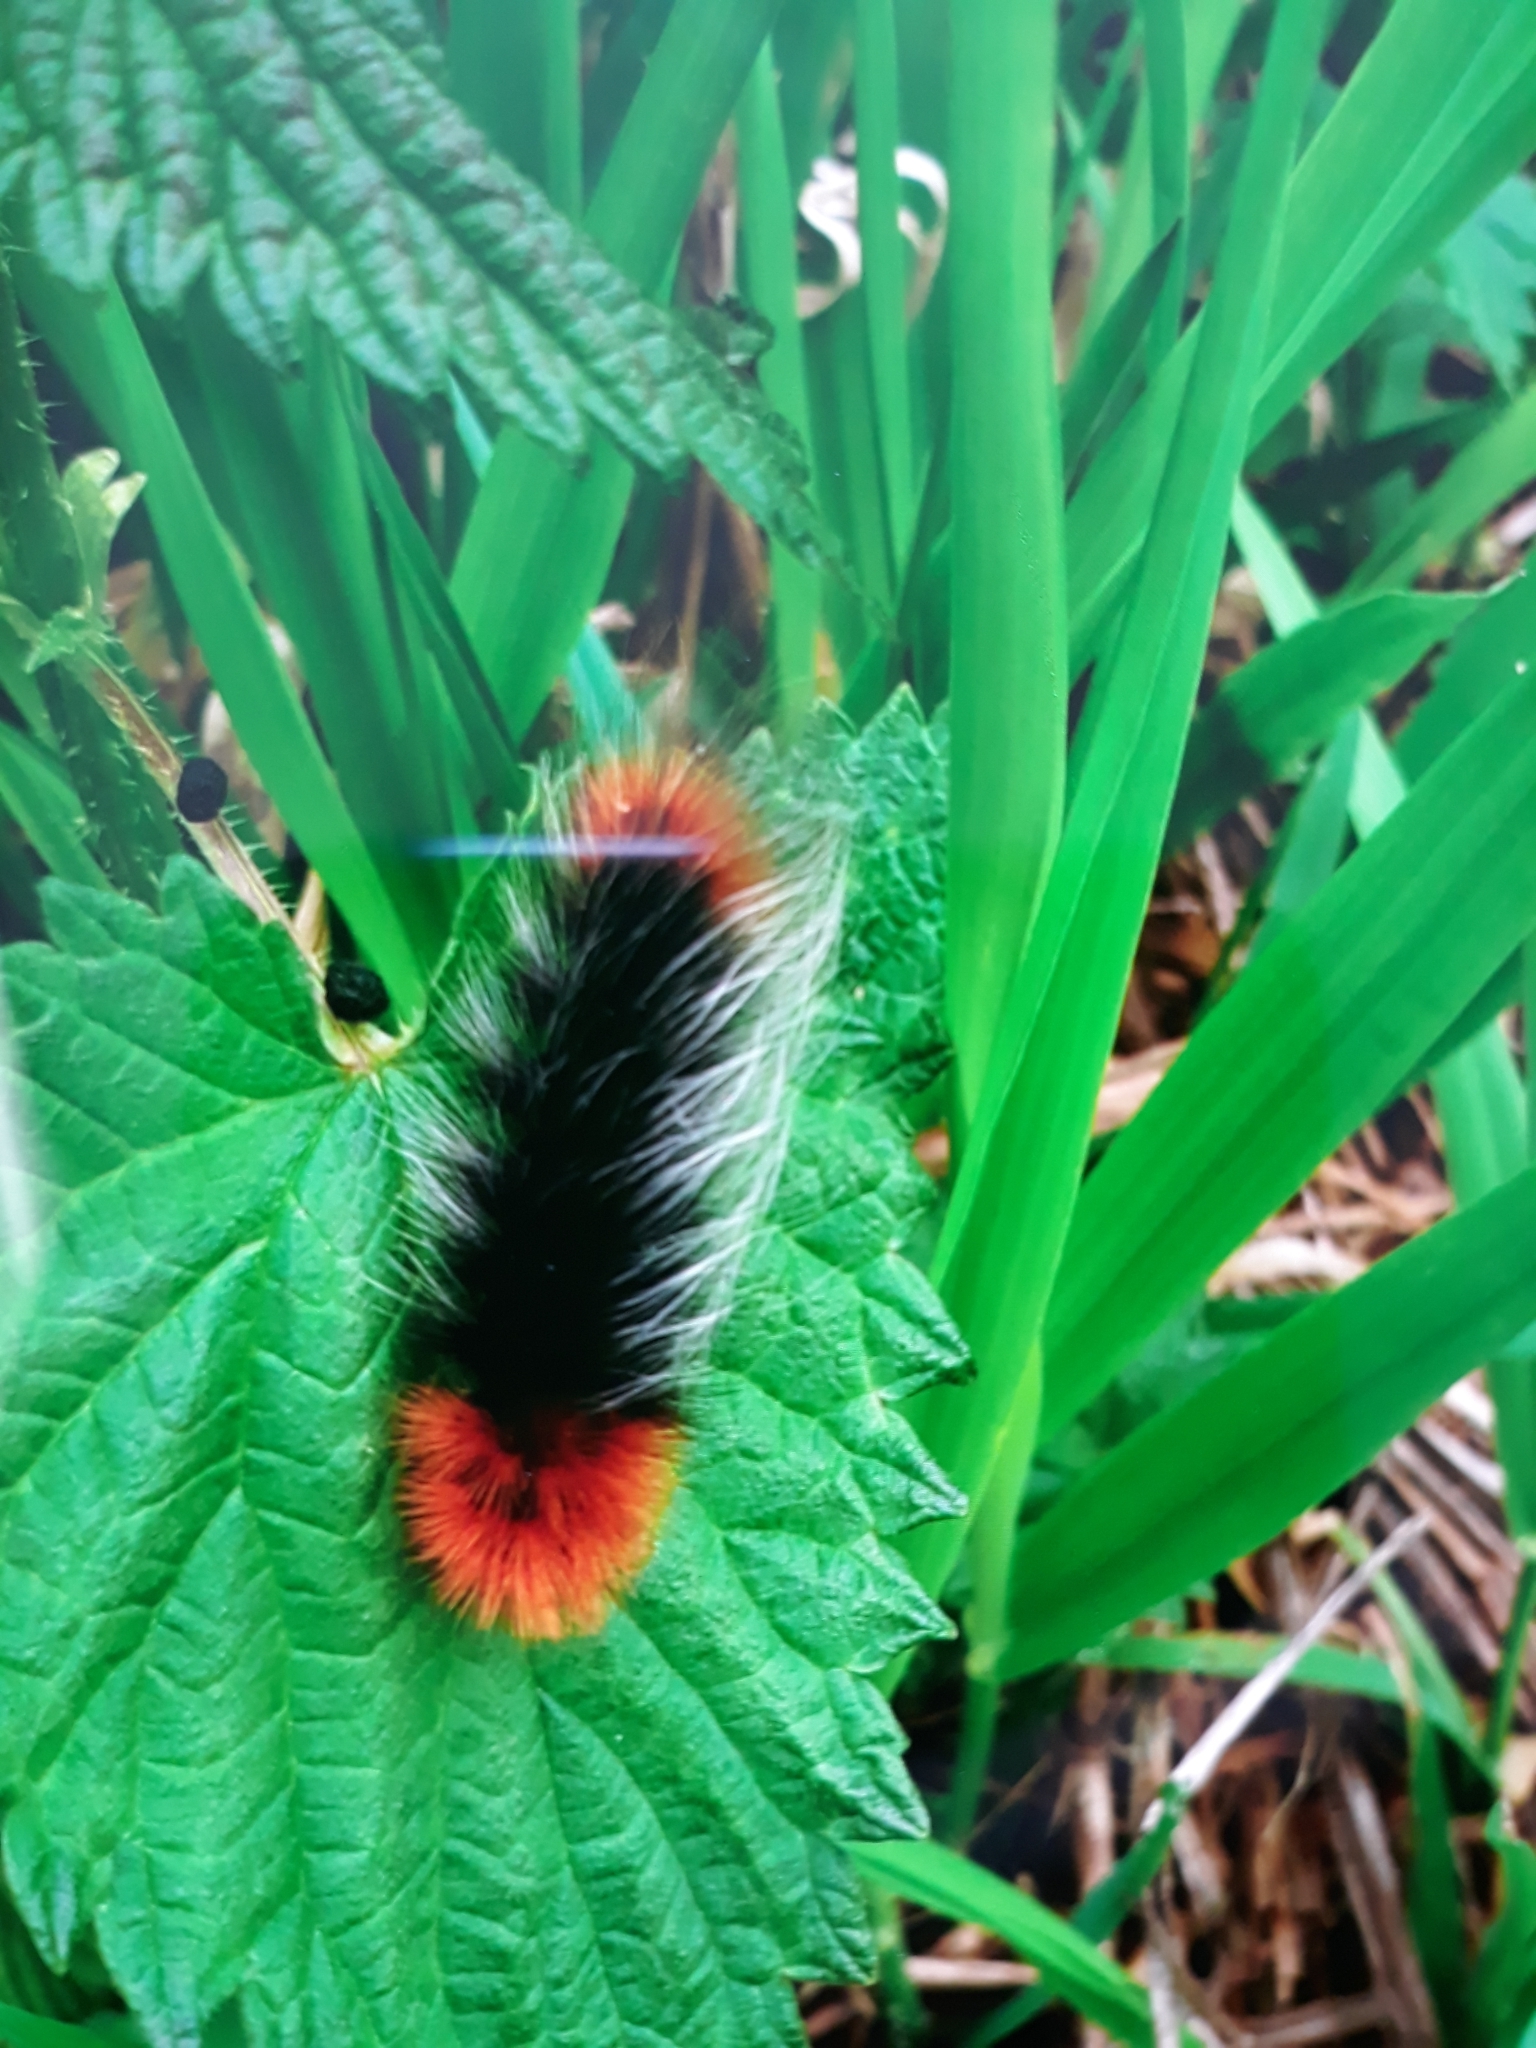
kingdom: Animalia
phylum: Arthropoda
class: Insecta
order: Lepidoptera
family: Erebidae
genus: Arctia
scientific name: Arctia tigrina
